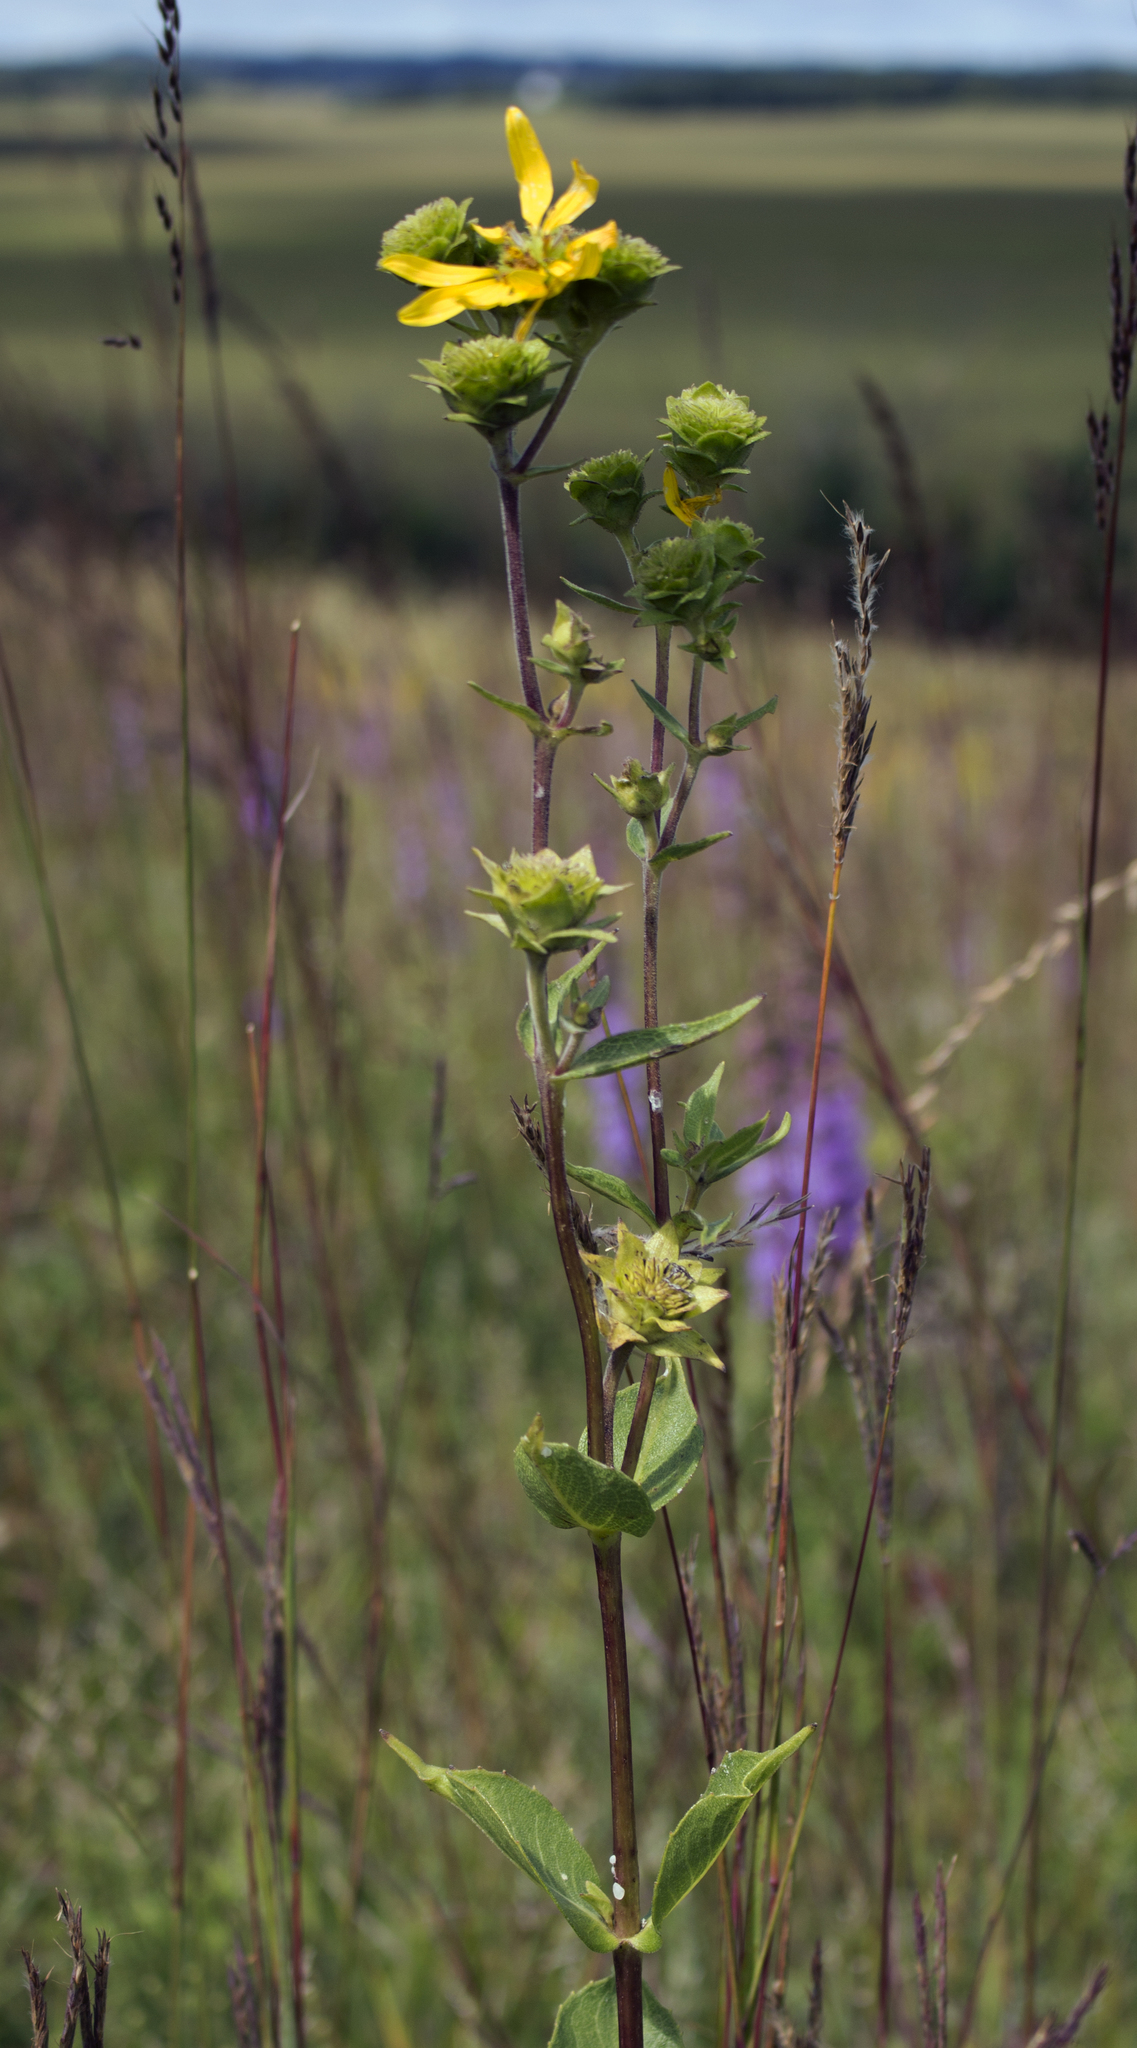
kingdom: Plantae
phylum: Tracheophyta
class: Magnoliopsida
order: Asterales
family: Asteraceae
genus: Silphium
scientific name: Silphium integrifolium
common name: Whole-leaf rosinweed
